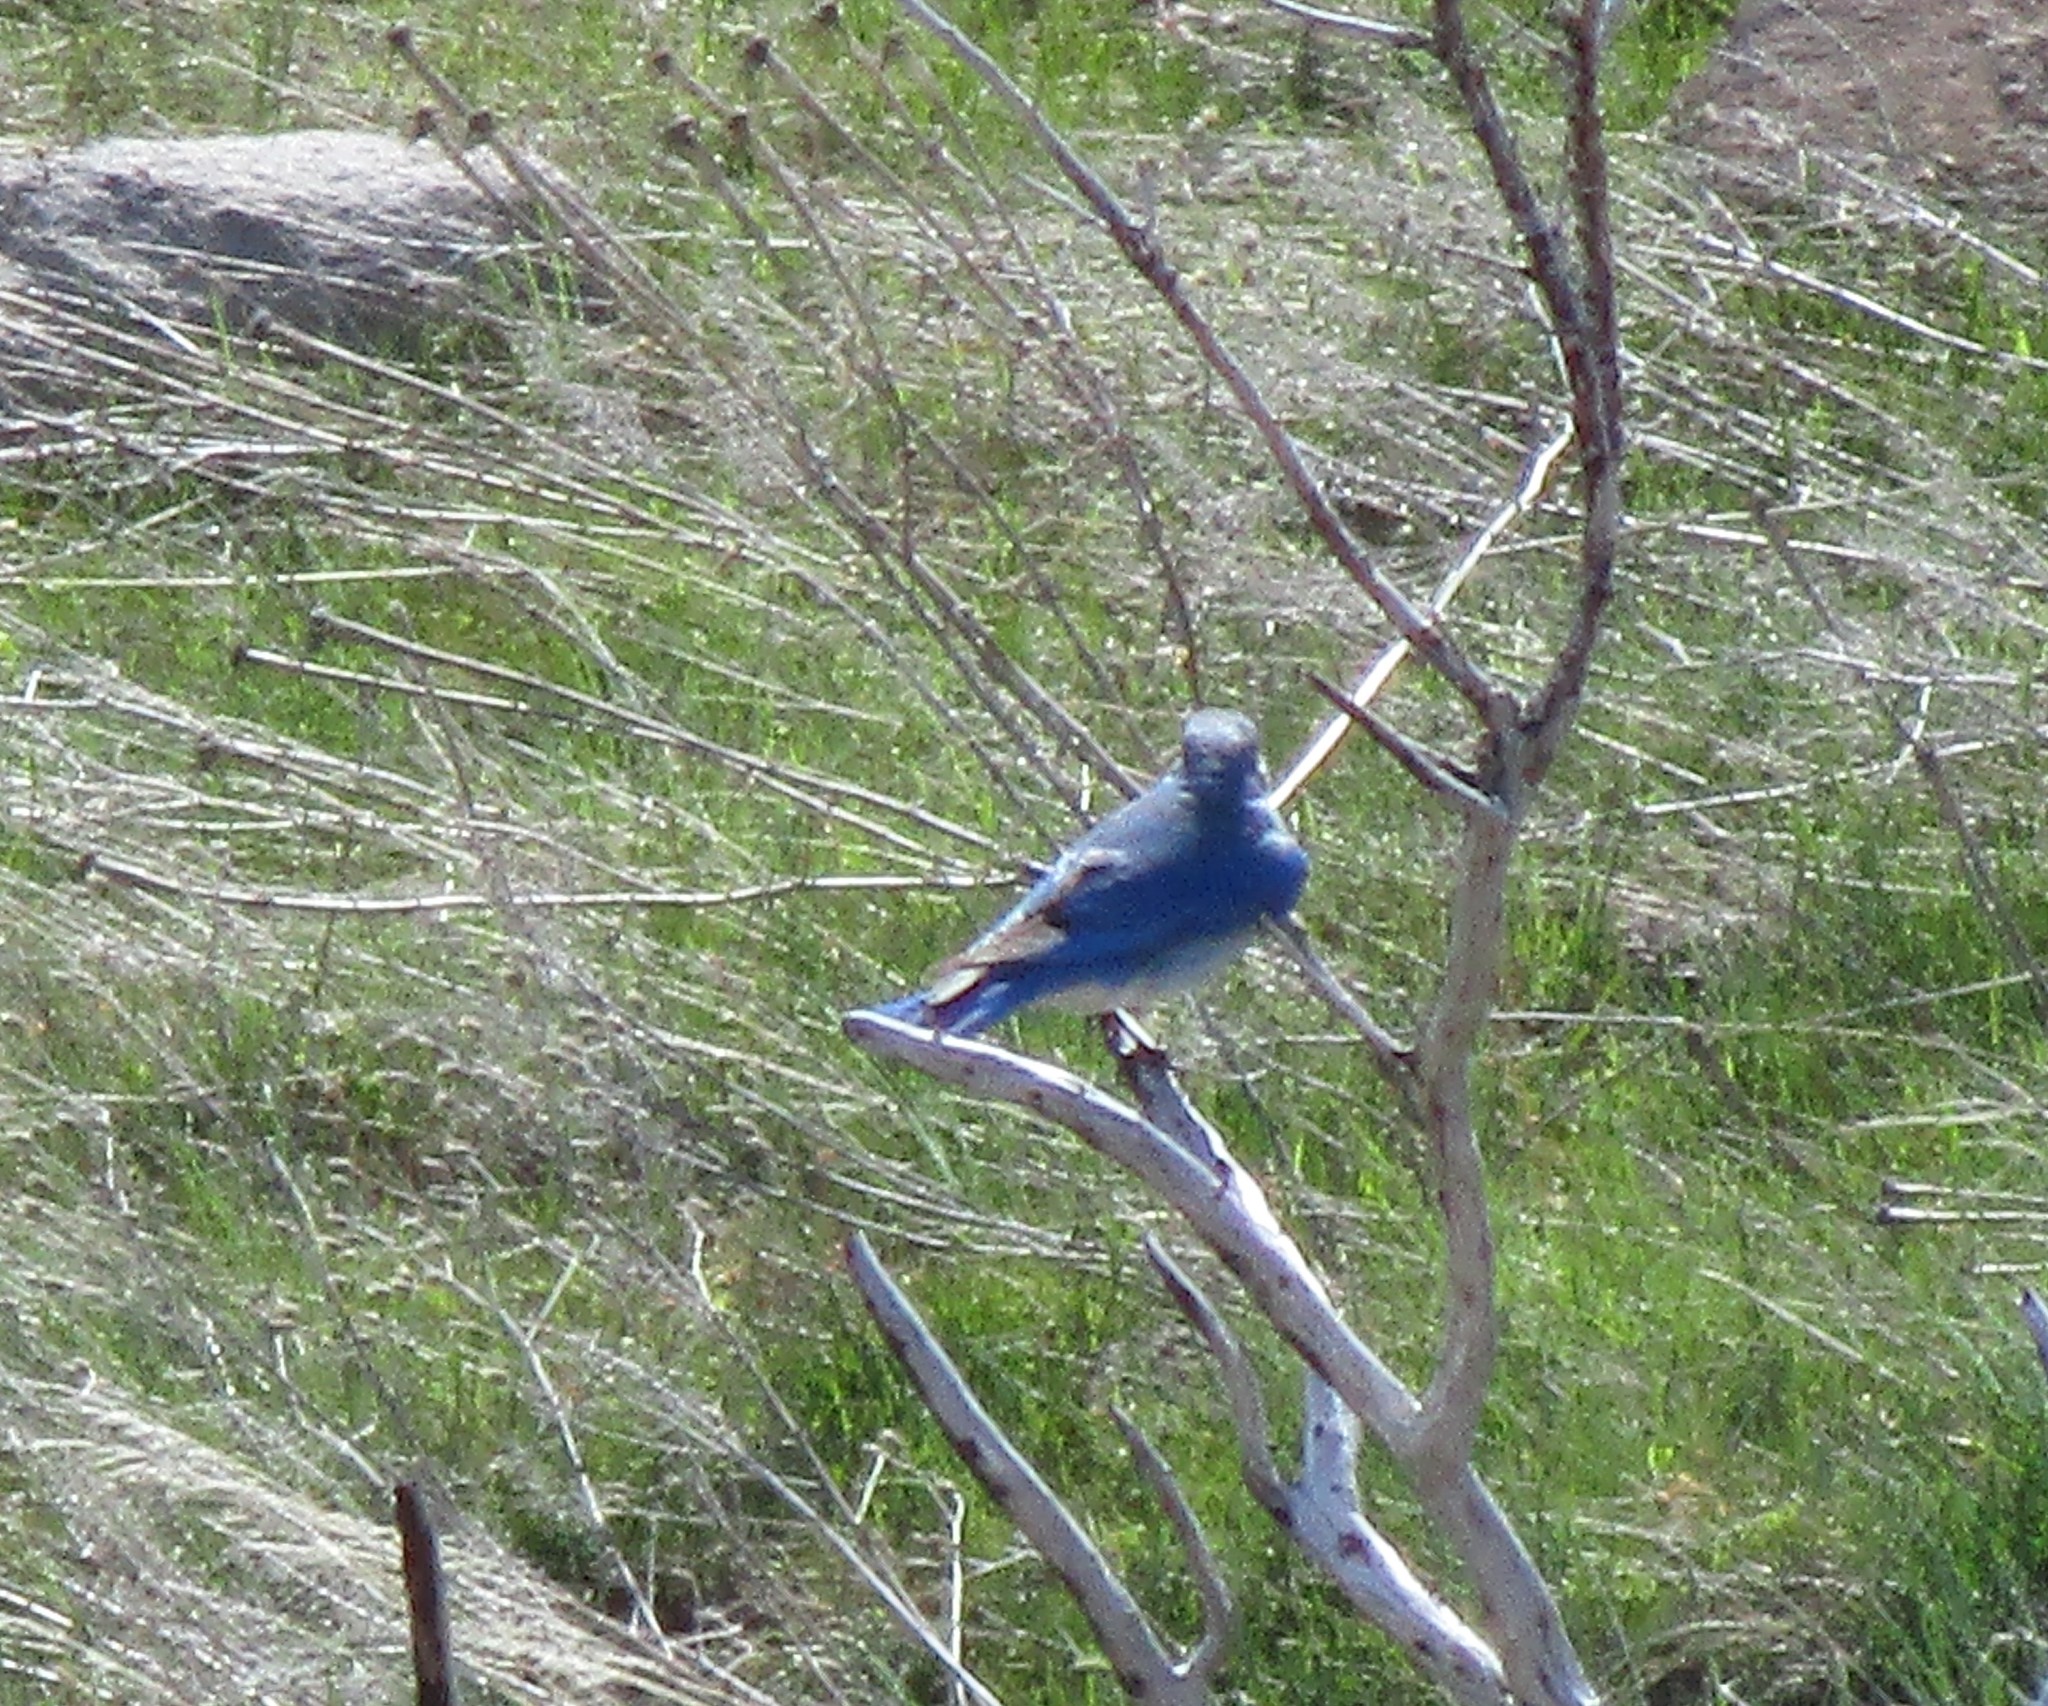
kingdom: Animalia
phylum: Chordata
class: Aves
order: Passeriformes
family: Turdidae
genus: Sialia
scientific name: Sialia currucoides
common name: Mountain bluebird
